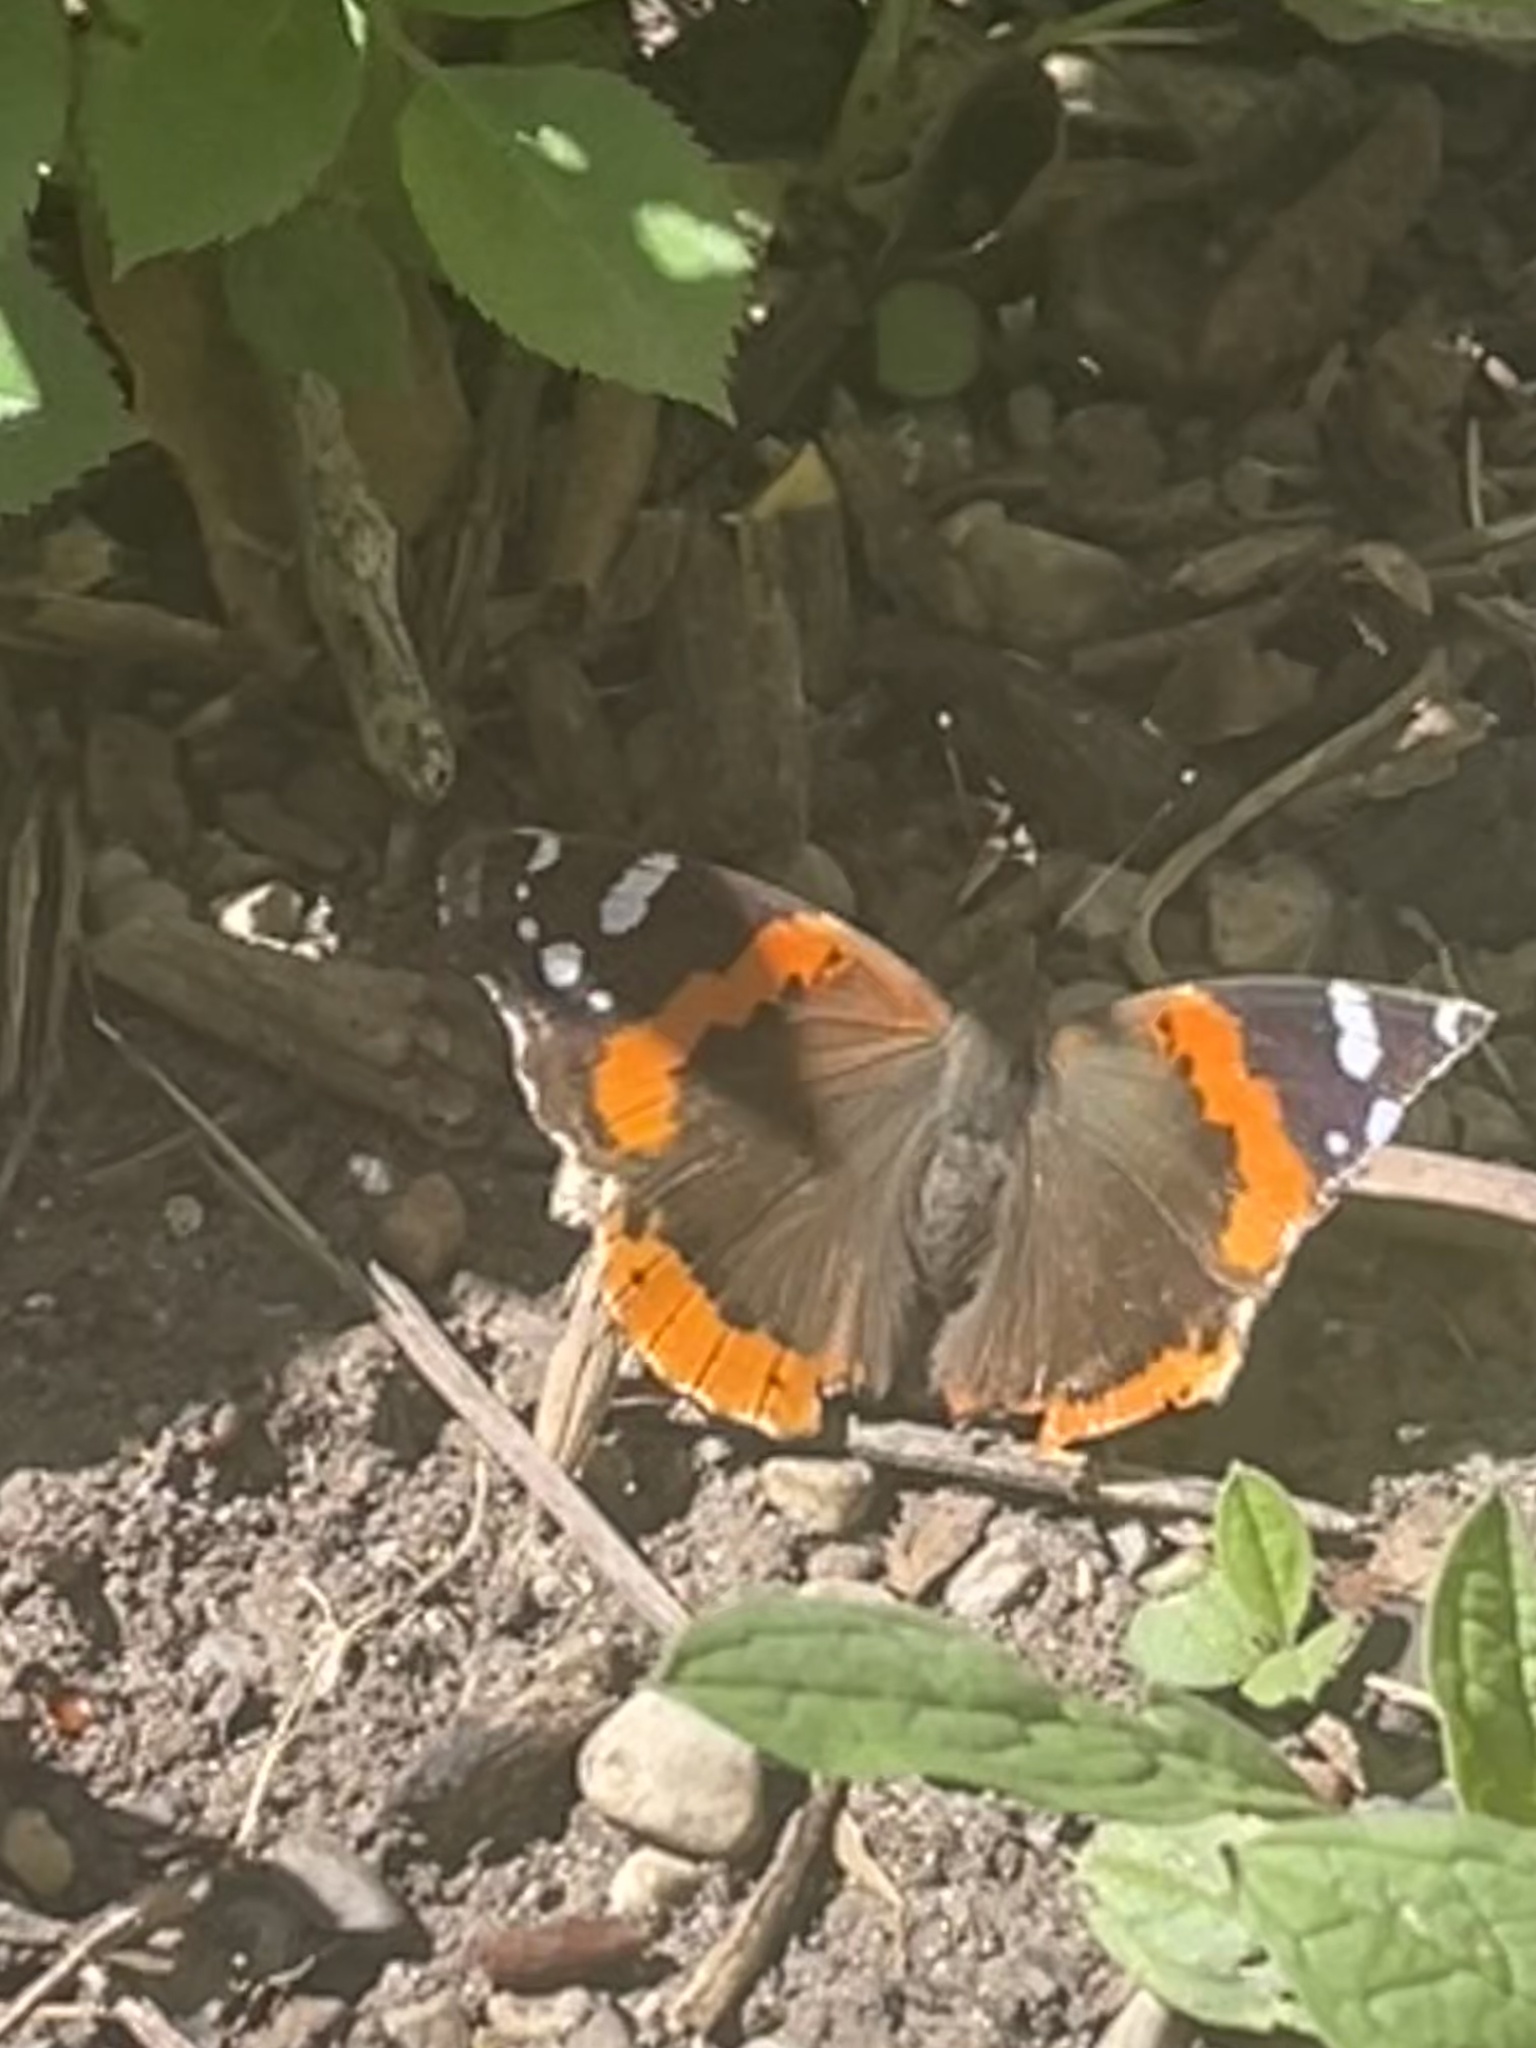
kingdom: Animalia
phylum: Arthropoda
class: Insecta
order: Lepidoptera
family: Nymphalidae
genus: Vanessa
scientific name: Vanessa atalanta
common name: Red admiral
